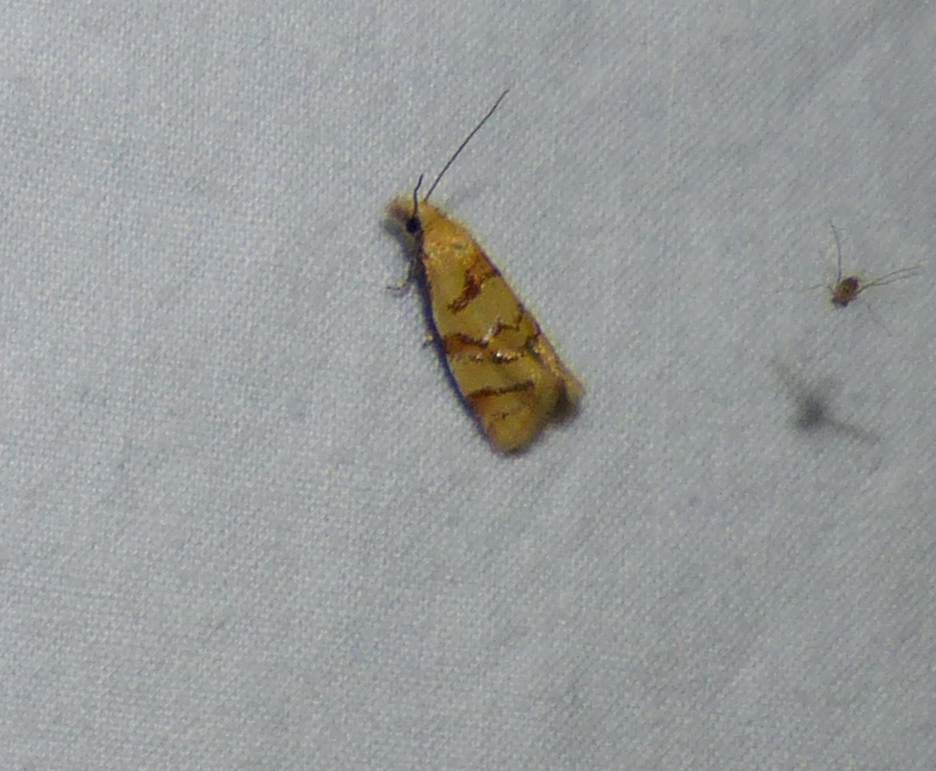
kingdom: Animalia
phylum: Arthropoda
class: Insecta
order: Lepidoptera
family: Tortricidae
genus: Phtheochroa
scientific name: Phtheochroa vitellinana
